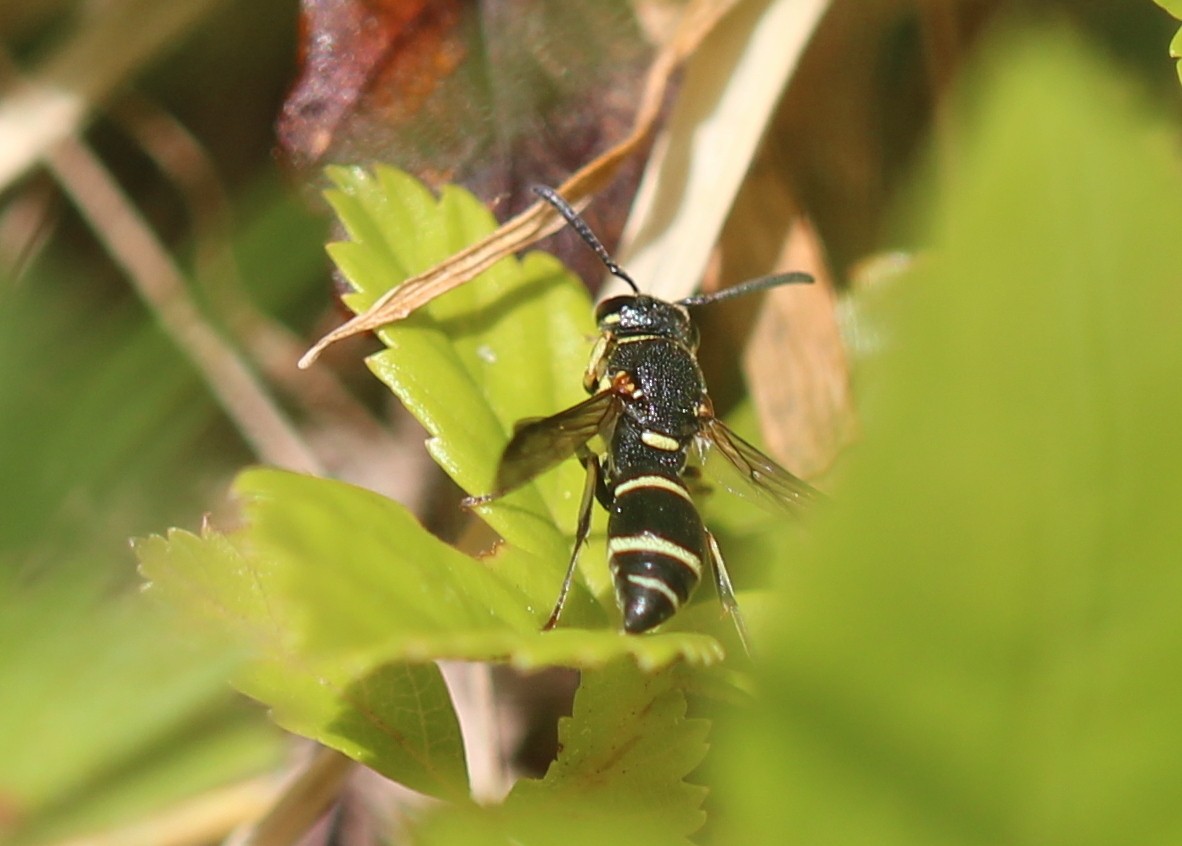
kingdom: Animalia
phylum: Arthropoda
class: Insecta
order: Hymenoptera
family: Eumenidae
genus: Parancistrocerus
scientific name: Parancistrocerus pensylvanicus
